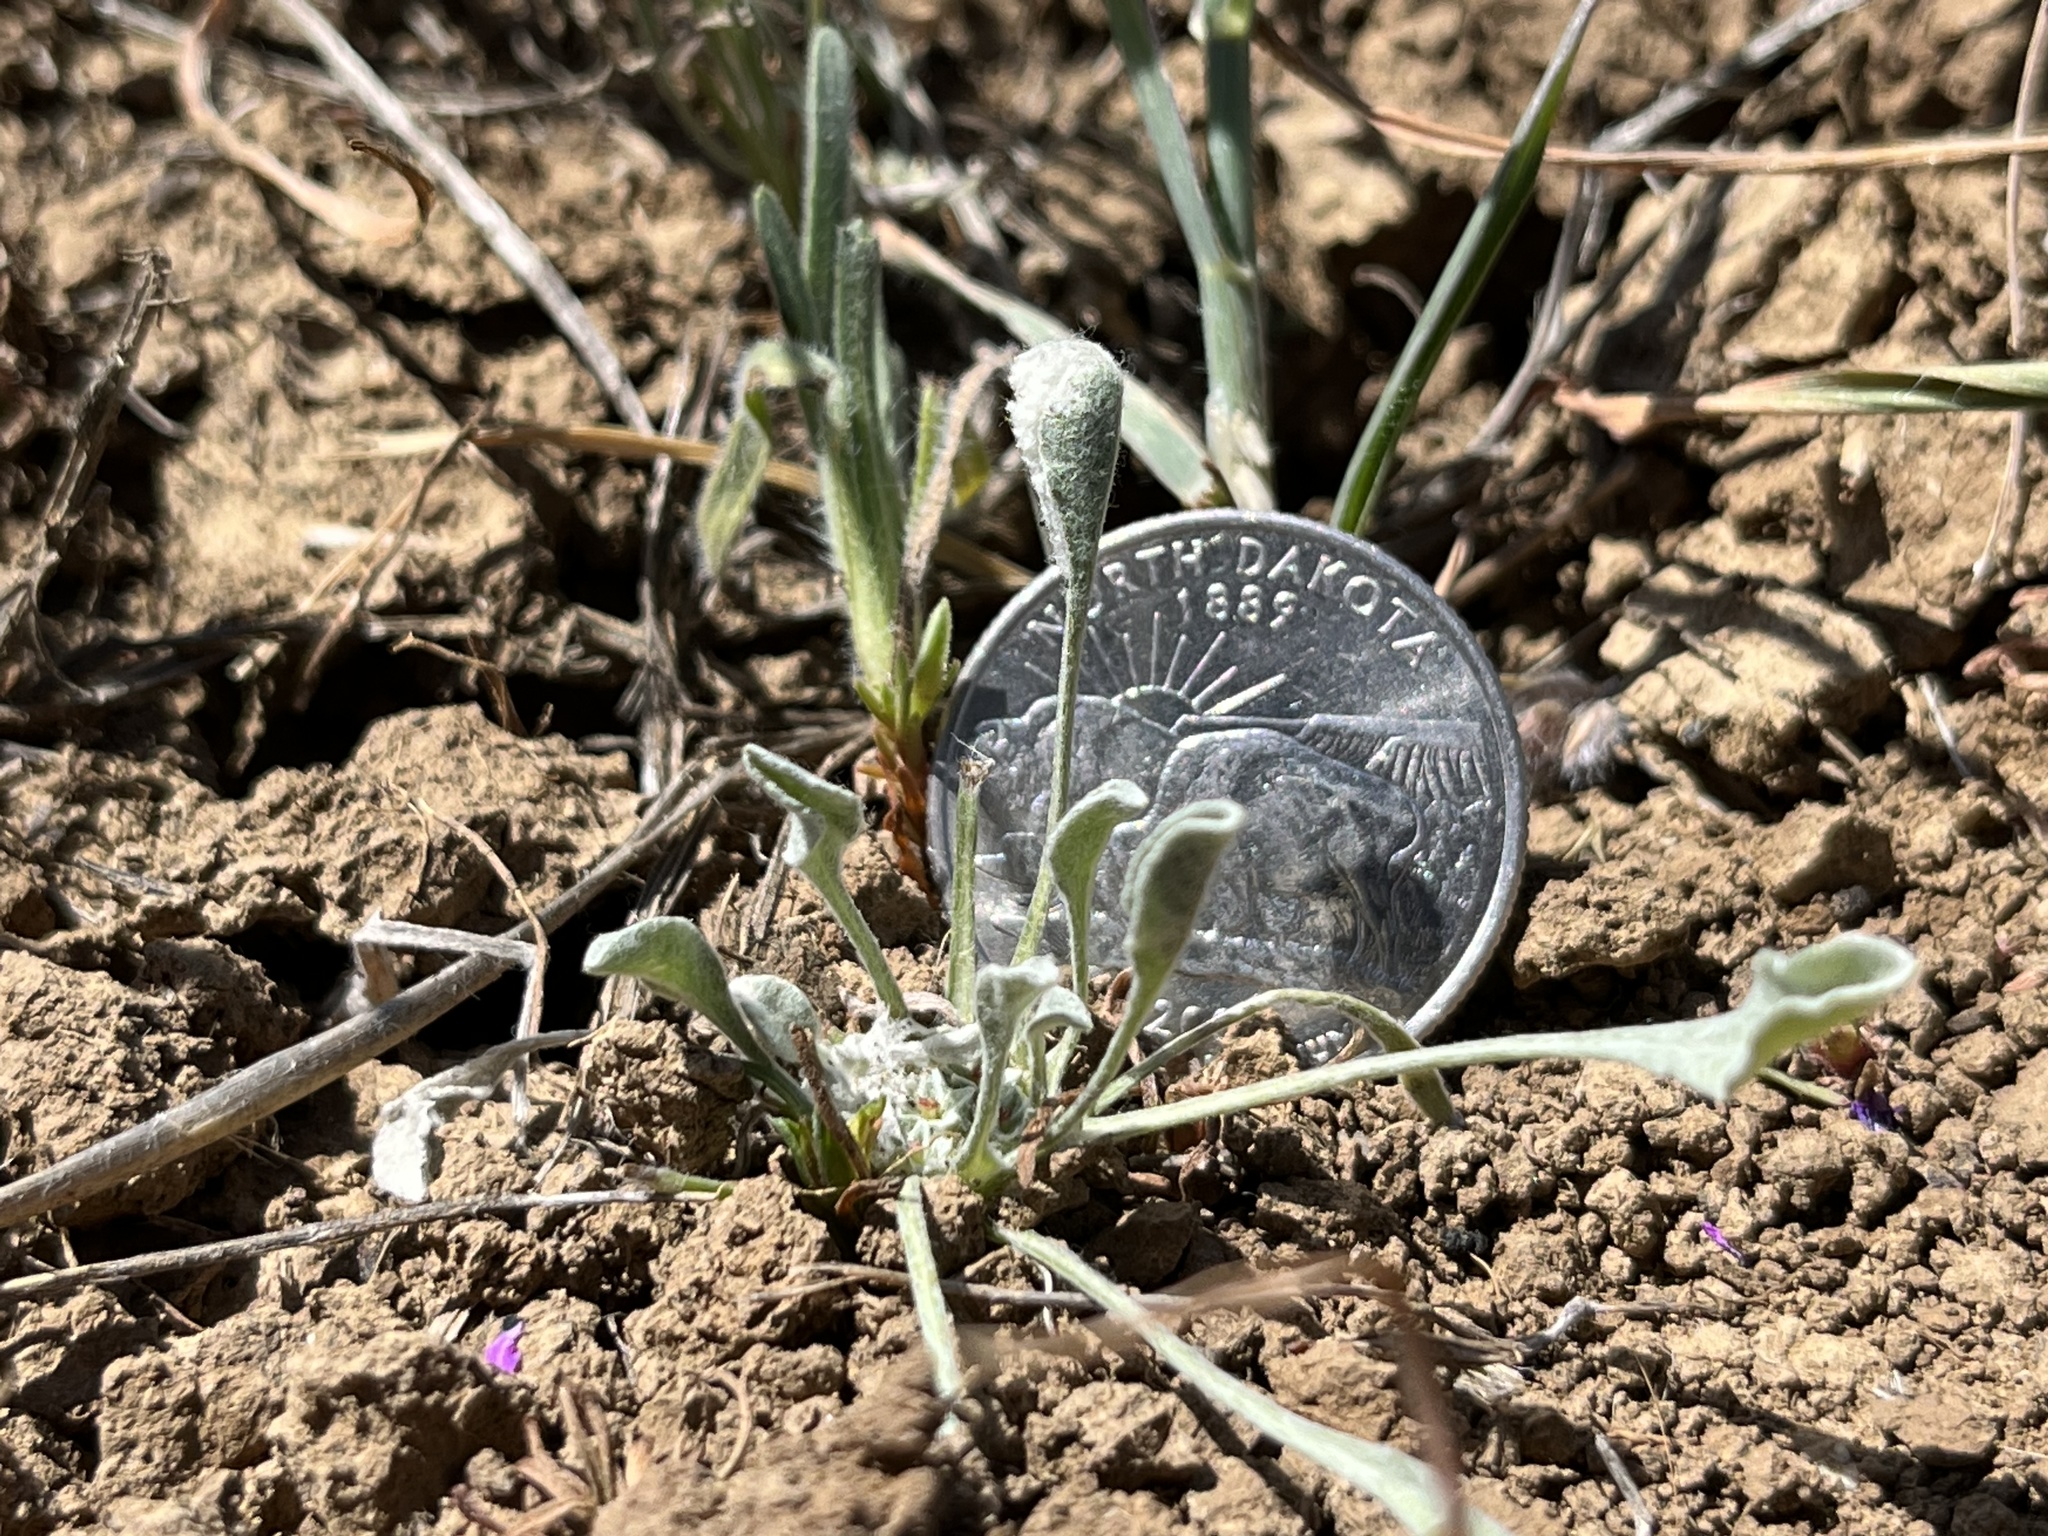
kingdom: Plantae
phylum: Tracheophyta
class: Magnoliopsida
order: Asterales
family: Asteraceae
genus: Hesperevax
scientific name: Hesperevax caulescens
